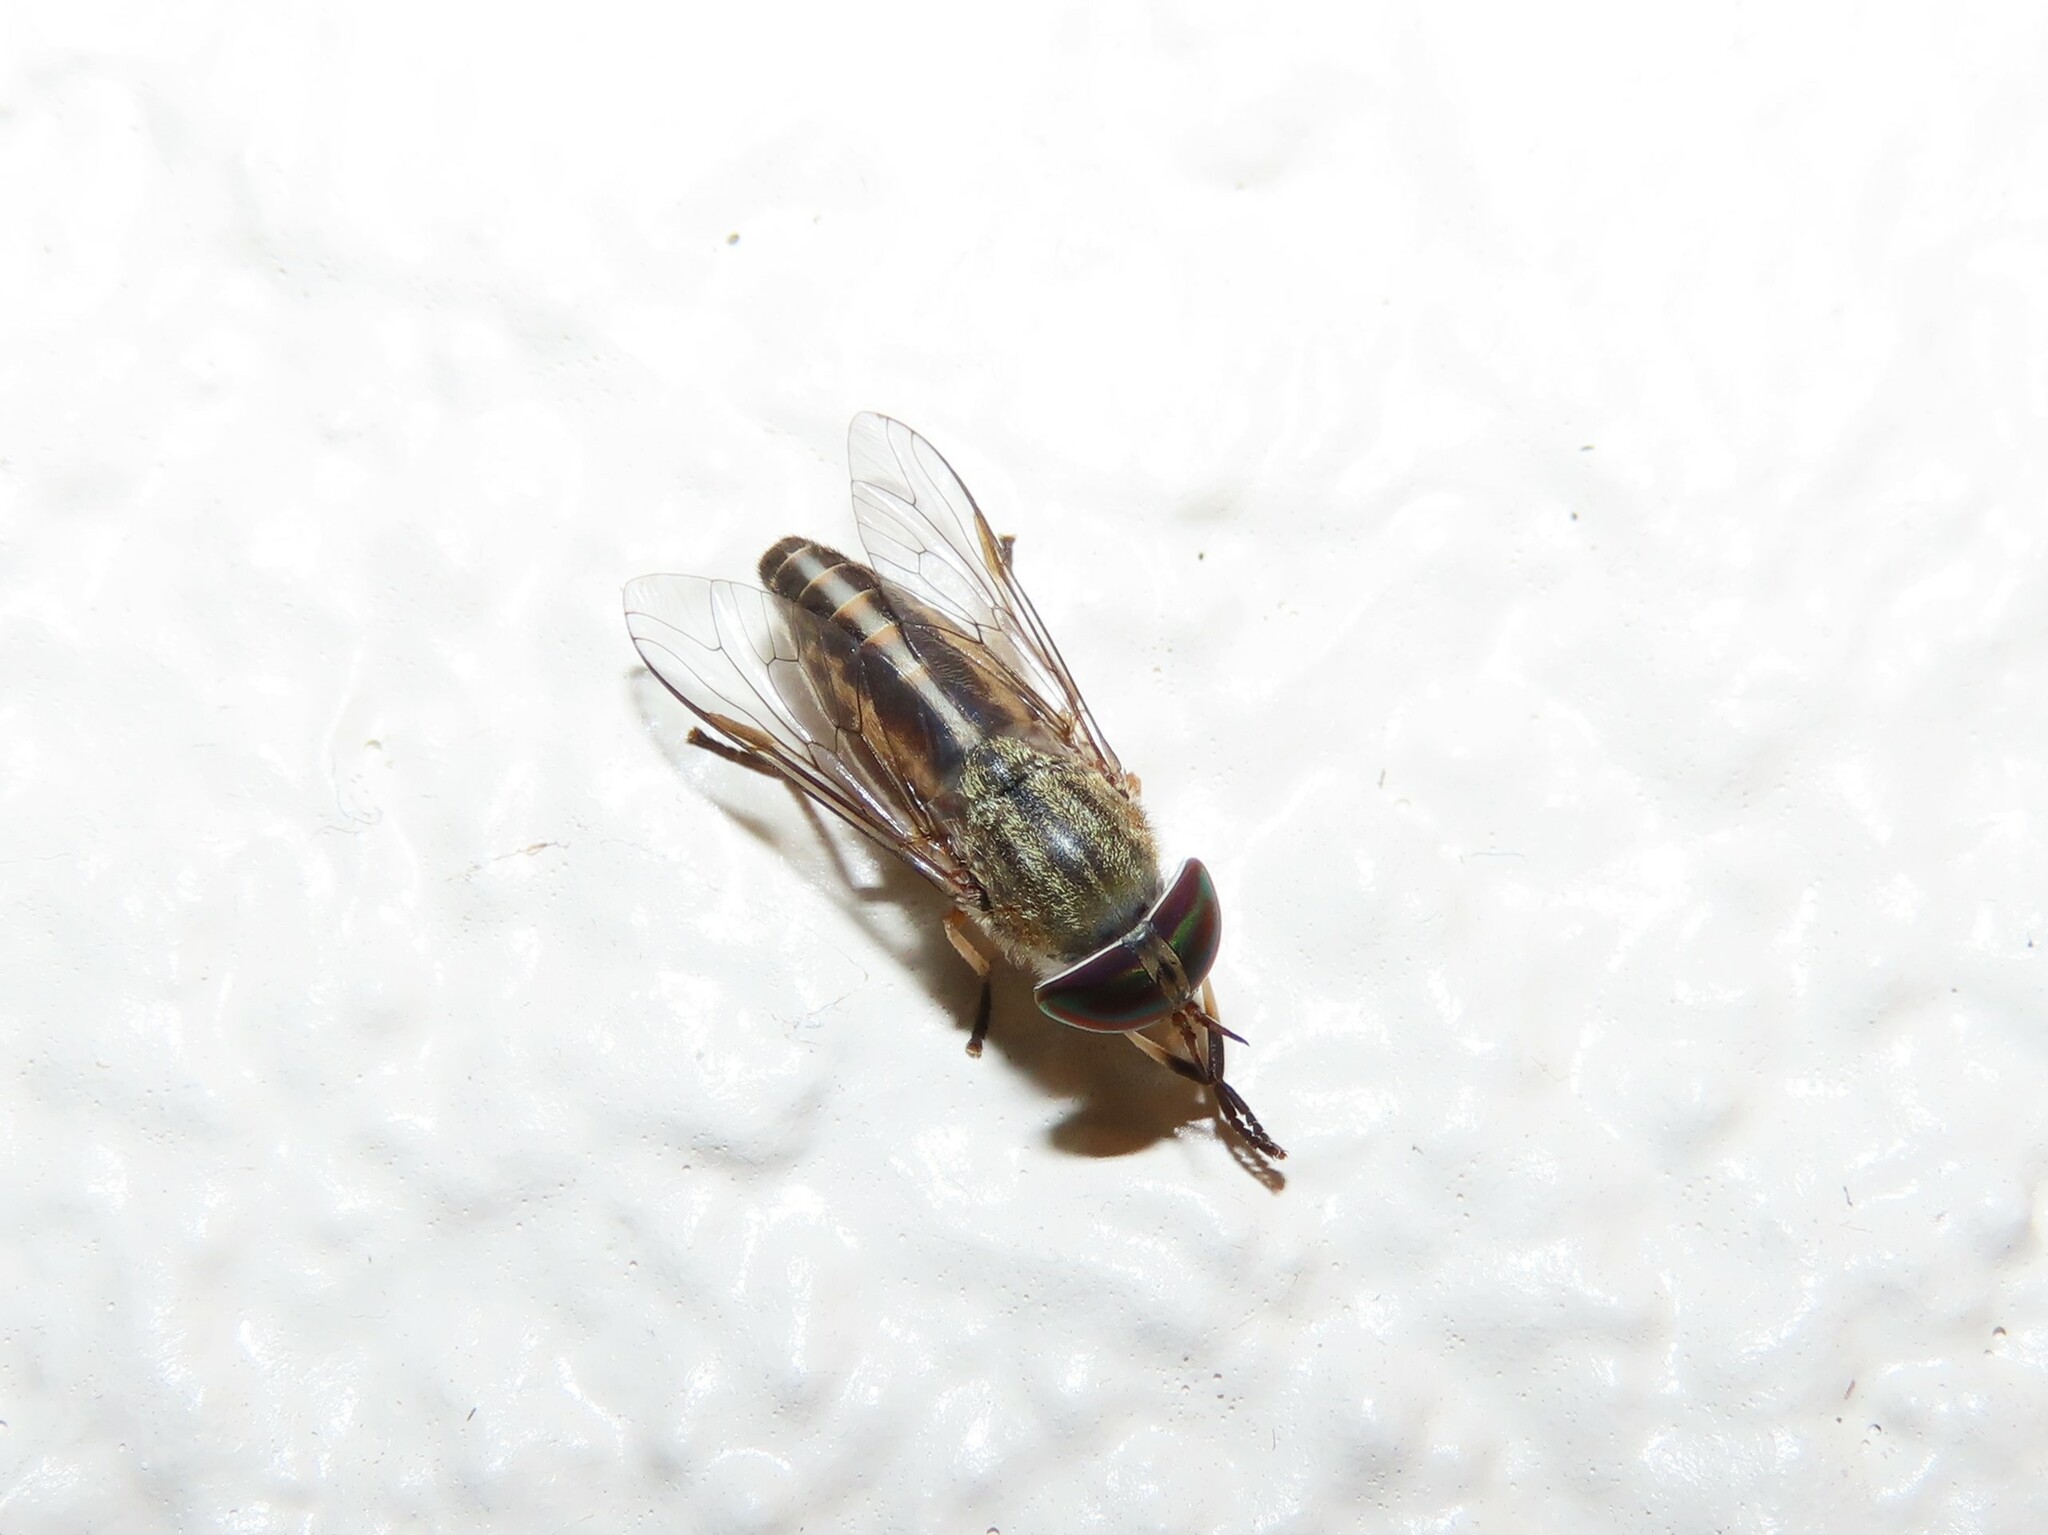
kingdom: Animalia
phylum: Arthropoda
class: Insecta
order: Diptera
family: Tabanidae
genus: Tabanus
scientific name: Tabanus lineola
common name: Striped horse fly
